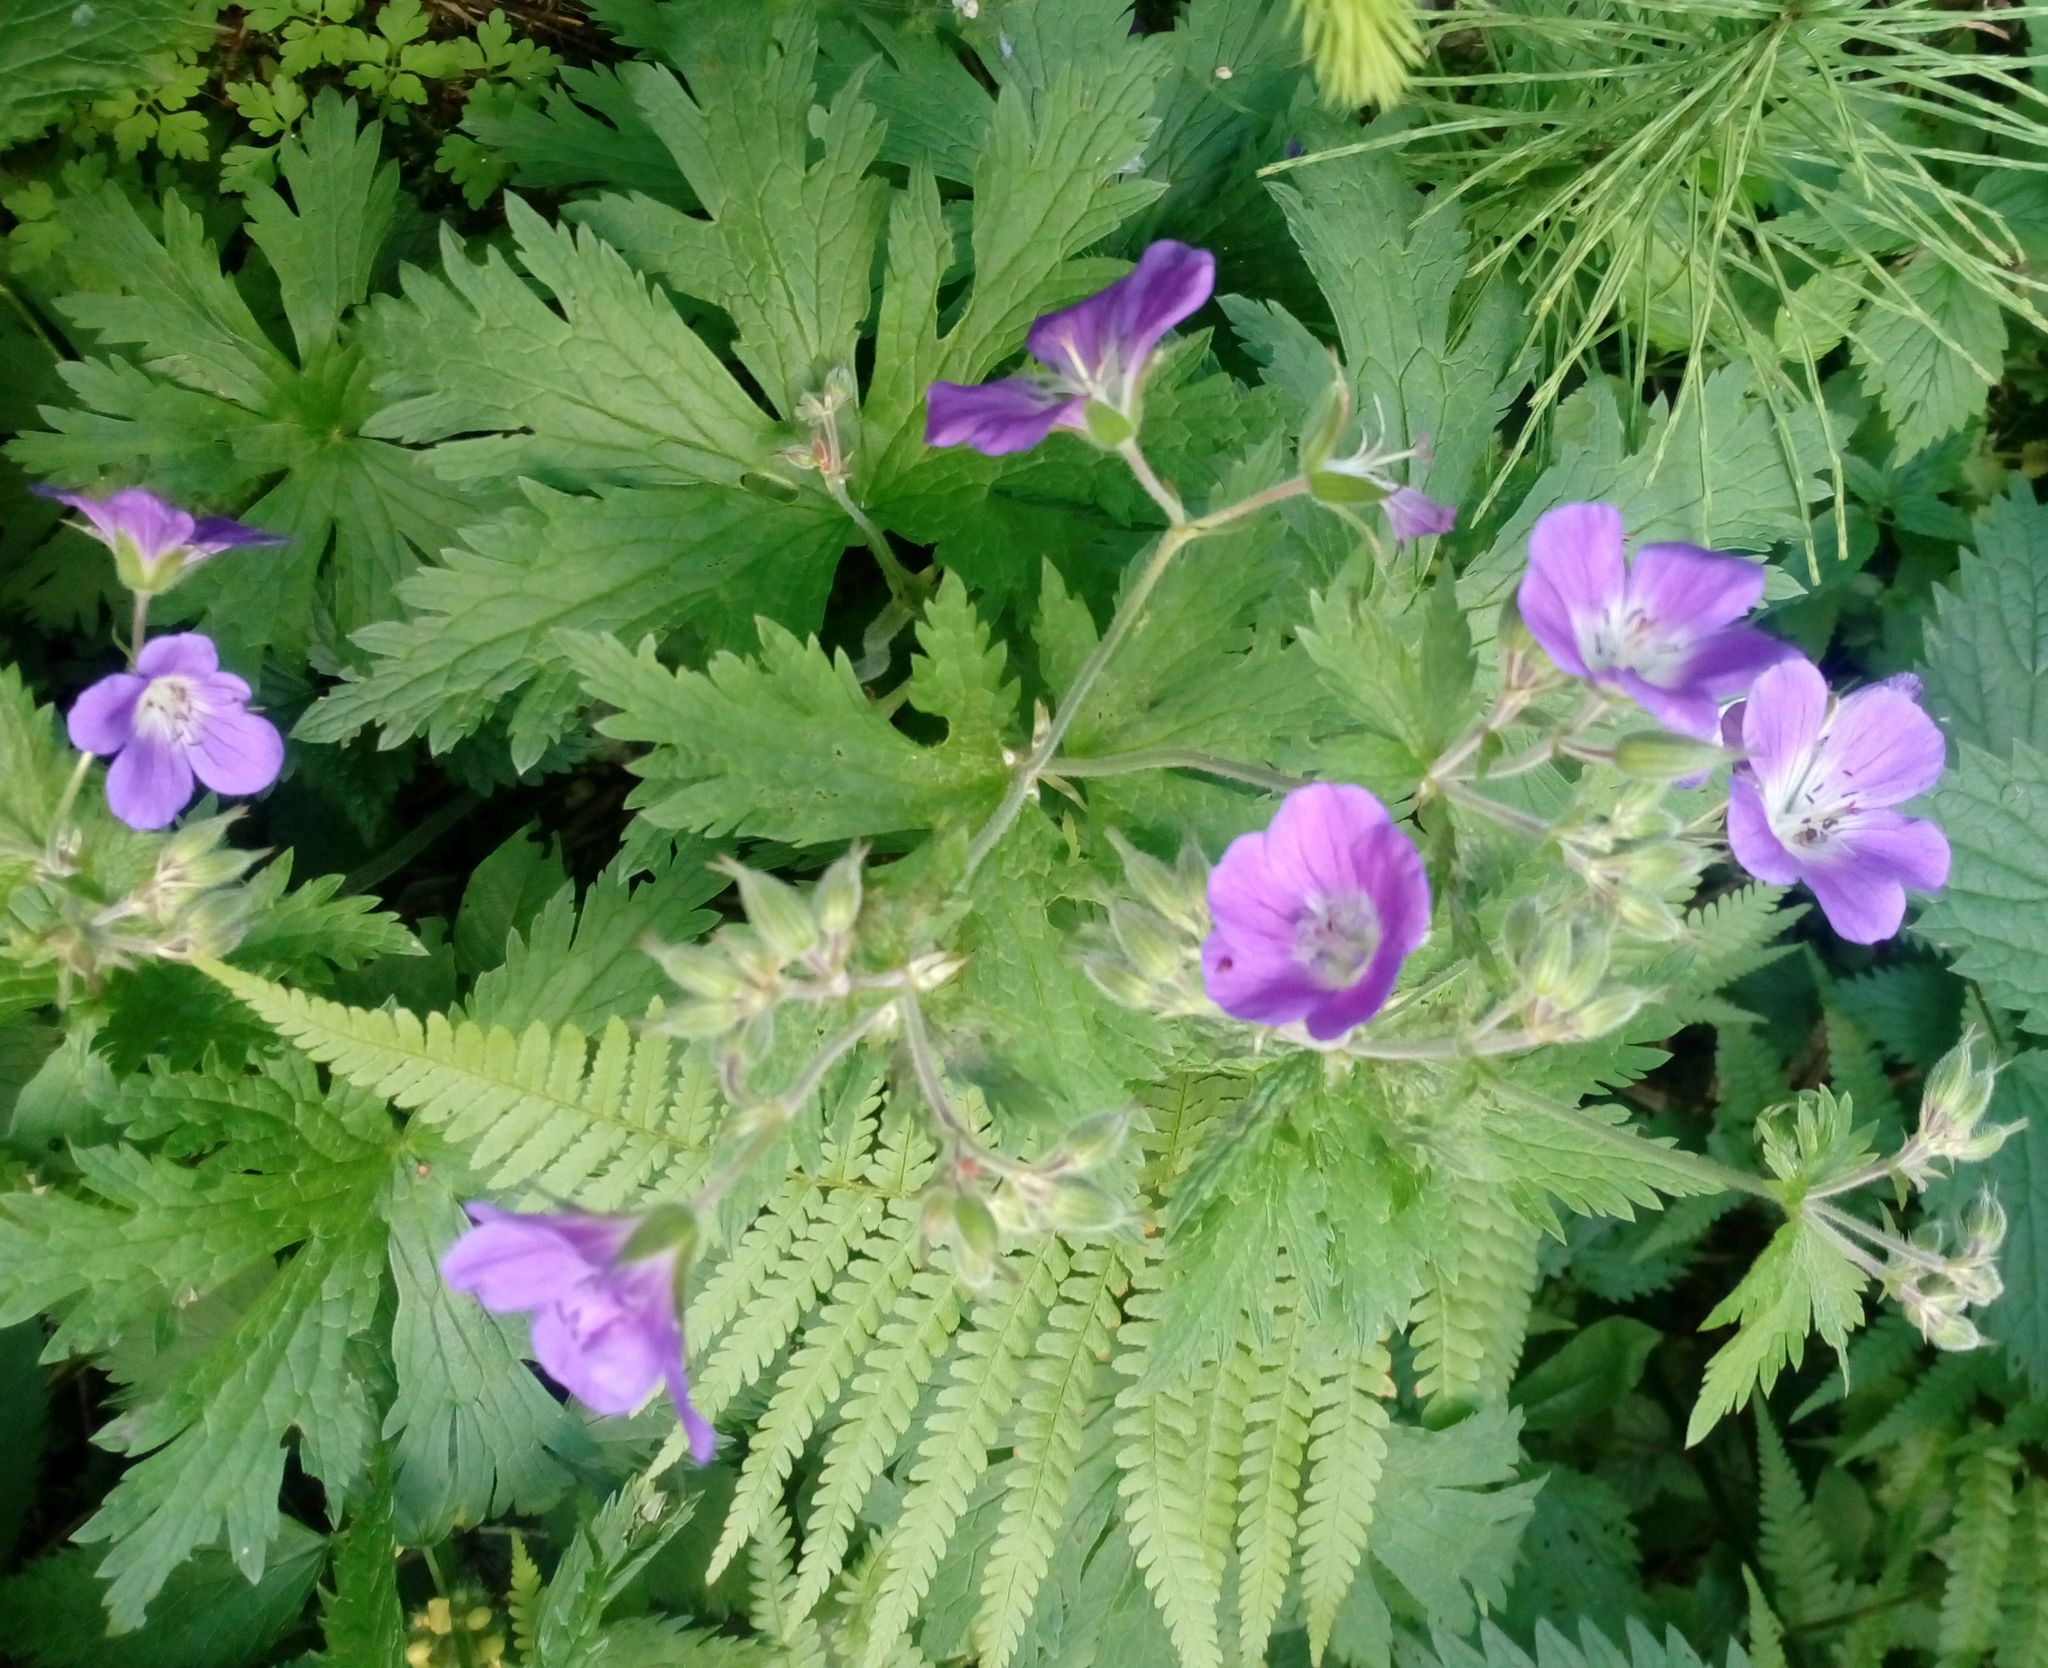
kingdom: Plantae
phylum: Tracheophyta
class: Magnoliopsida
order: Geraniales
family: Geraniaceae
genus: Geranium
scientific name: Geranium sylvaticum
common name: Wood crane's-bill
